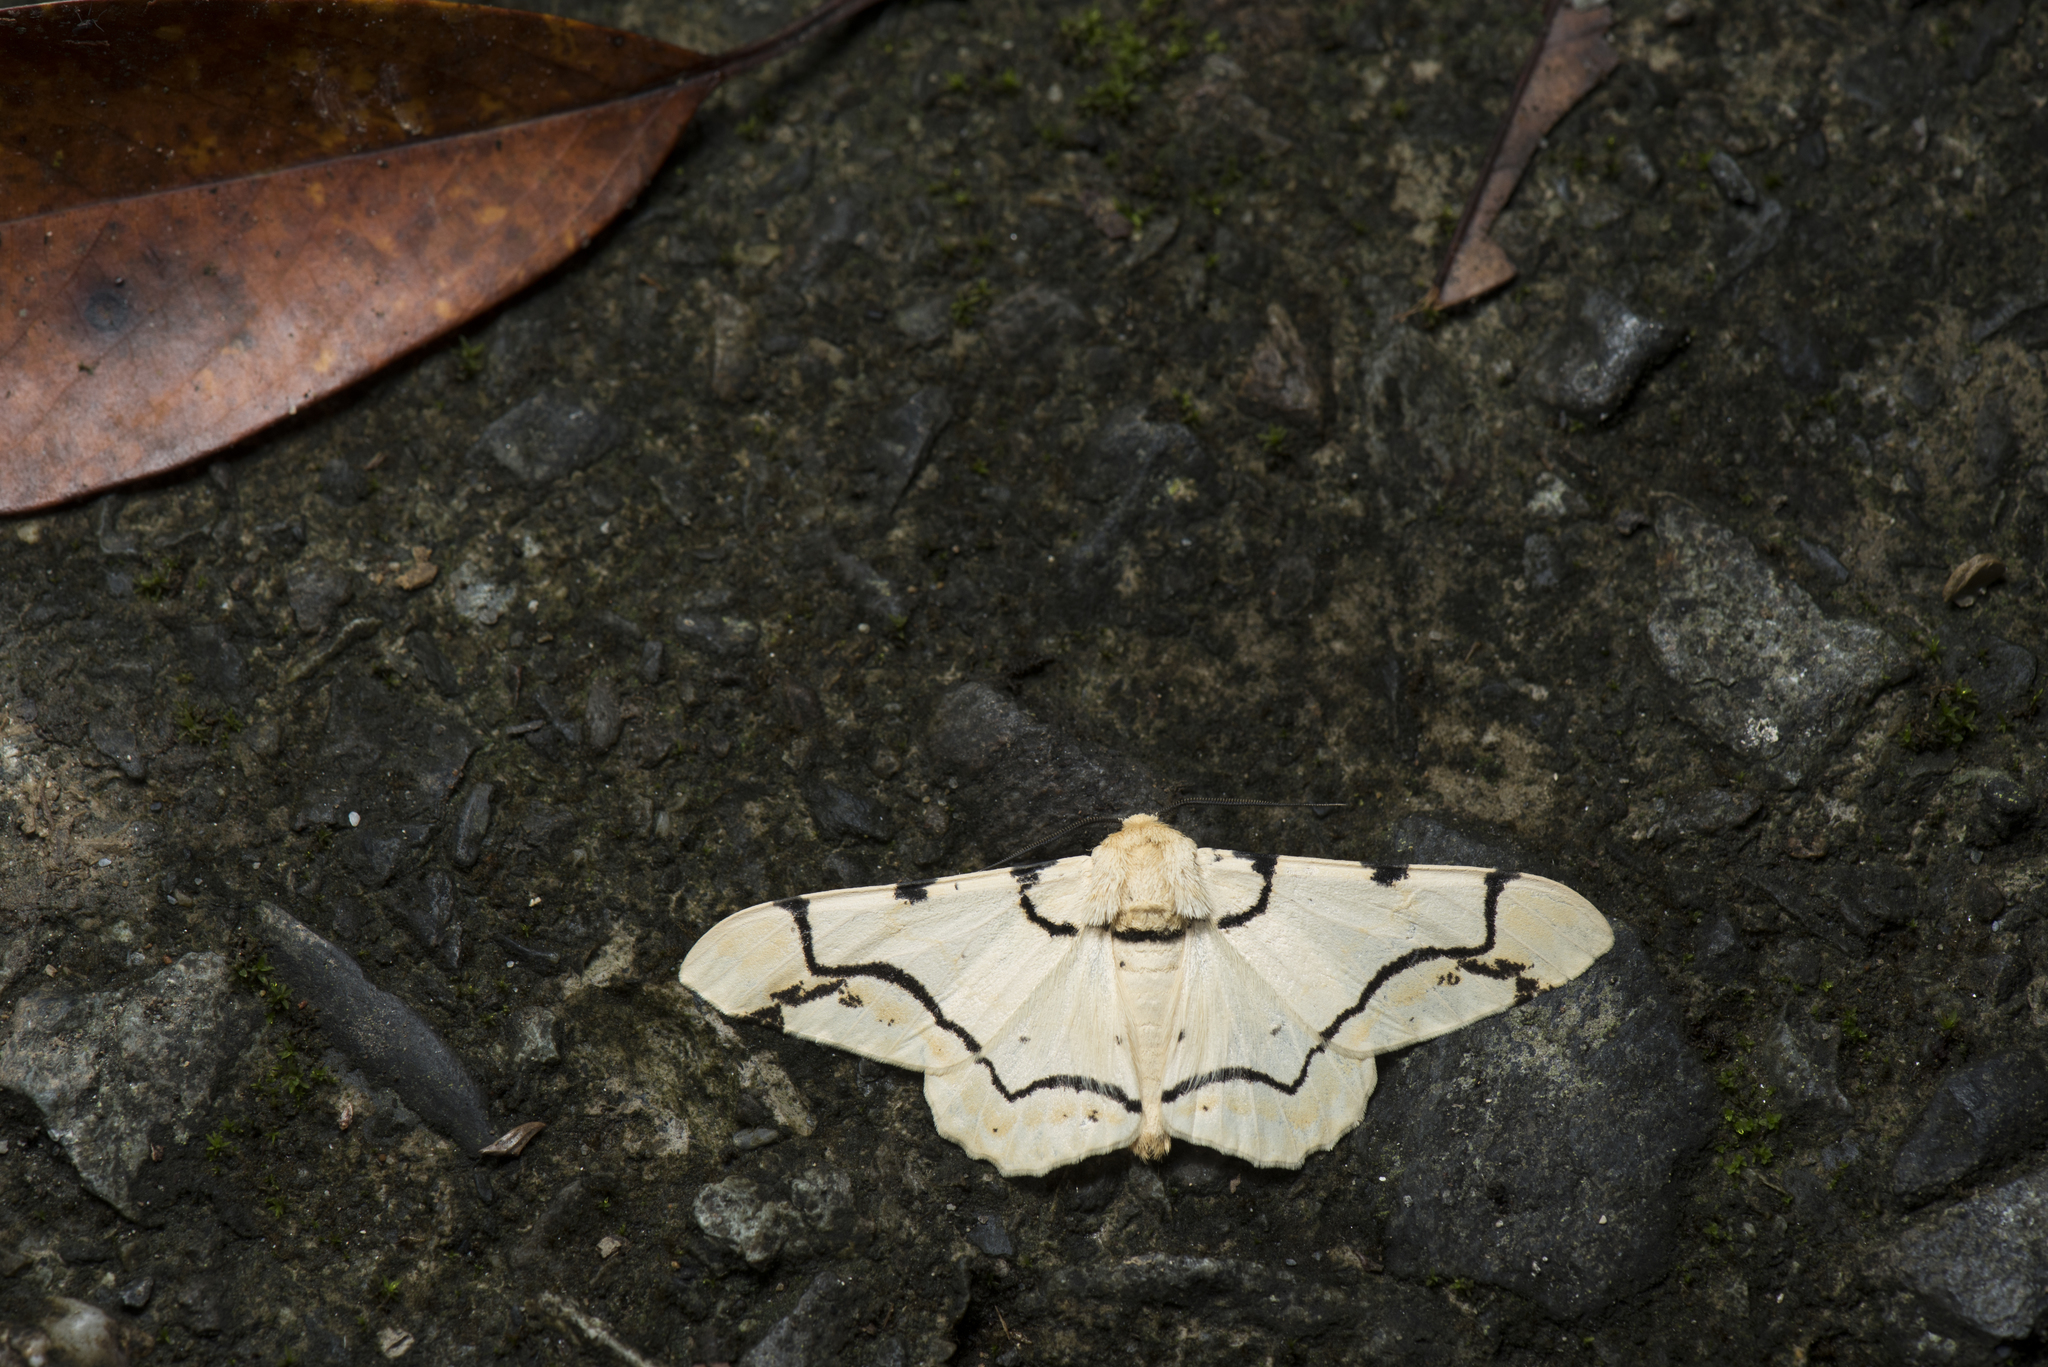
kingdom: Animalia
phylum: Arthropoda
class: Insecta
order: Lepidoptera
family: Geometridae
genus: Biston
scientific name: Biston perclara
